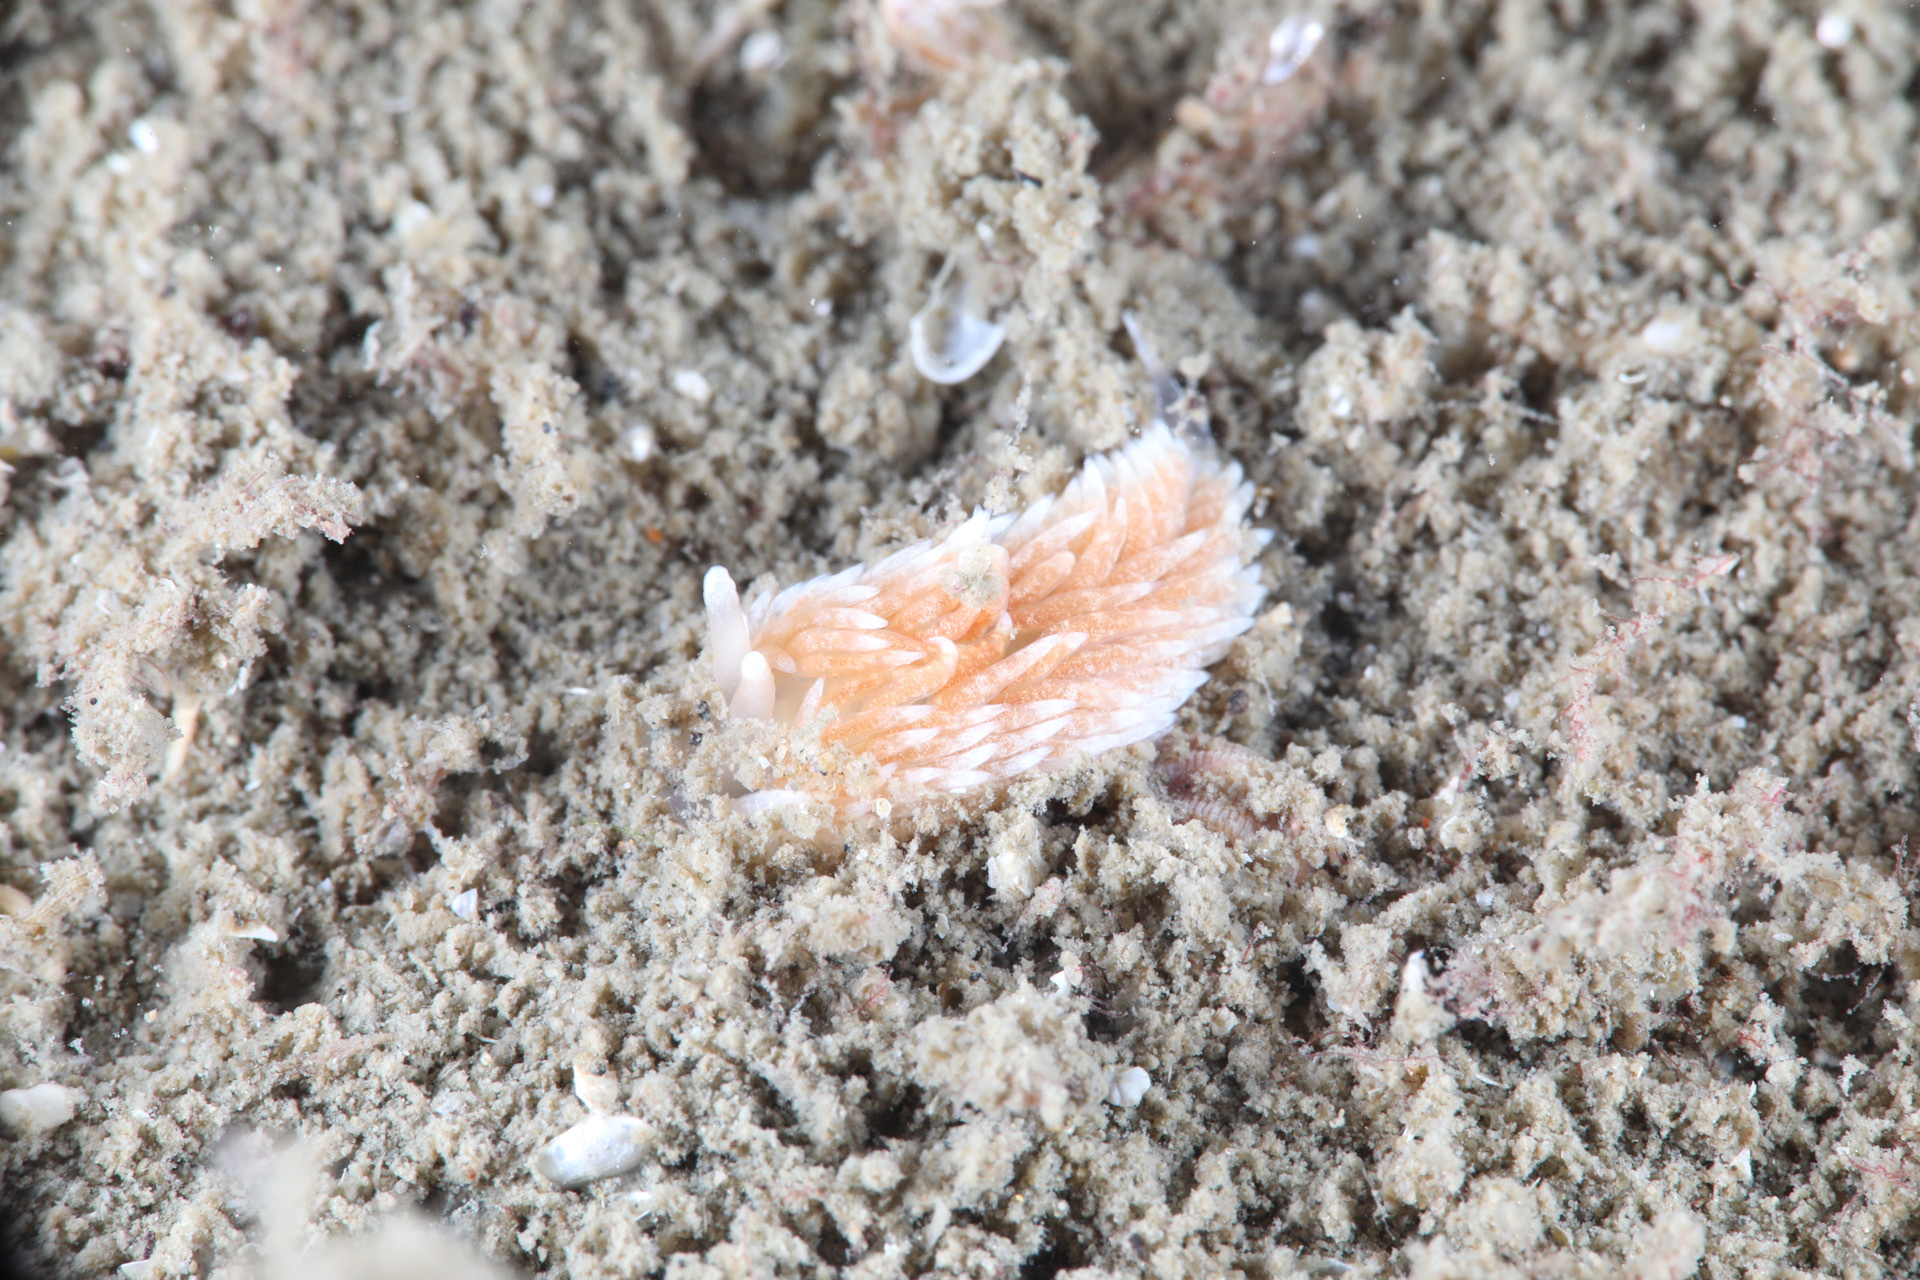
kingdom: Animalia
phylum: Mollusca
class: Gastropoda
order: Nudibranchia
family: Aeolidiidae
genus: Aeolidiella
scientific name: Aeolidiella glauca
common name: Orange-brown aeolid
